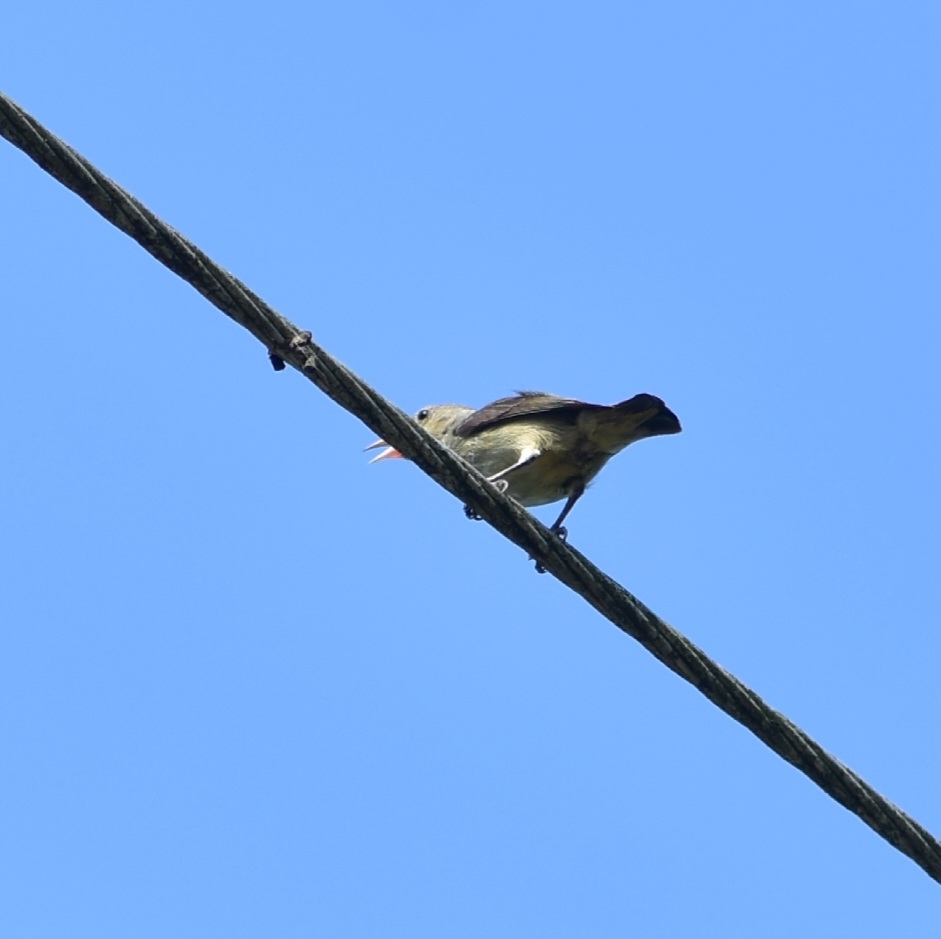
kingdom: Animalia
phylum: Chordata
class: Aves
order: Passeriformes
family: Dicaeidae
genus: Dicaeum
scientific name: Dicaeum erythrorhynchos
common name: Pale-billed flowerpecker
